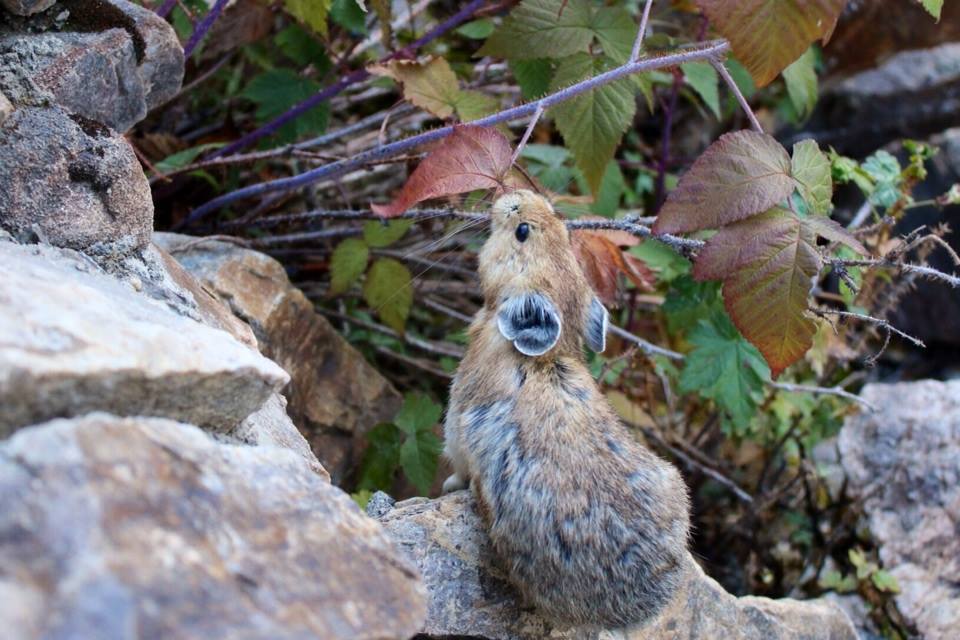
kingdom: Animalia
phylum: Chordata
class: Mammalia
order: Lagomorpha
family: Ochotonidae
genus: Ochotona
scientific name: Ochotona princeps
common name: American pika
